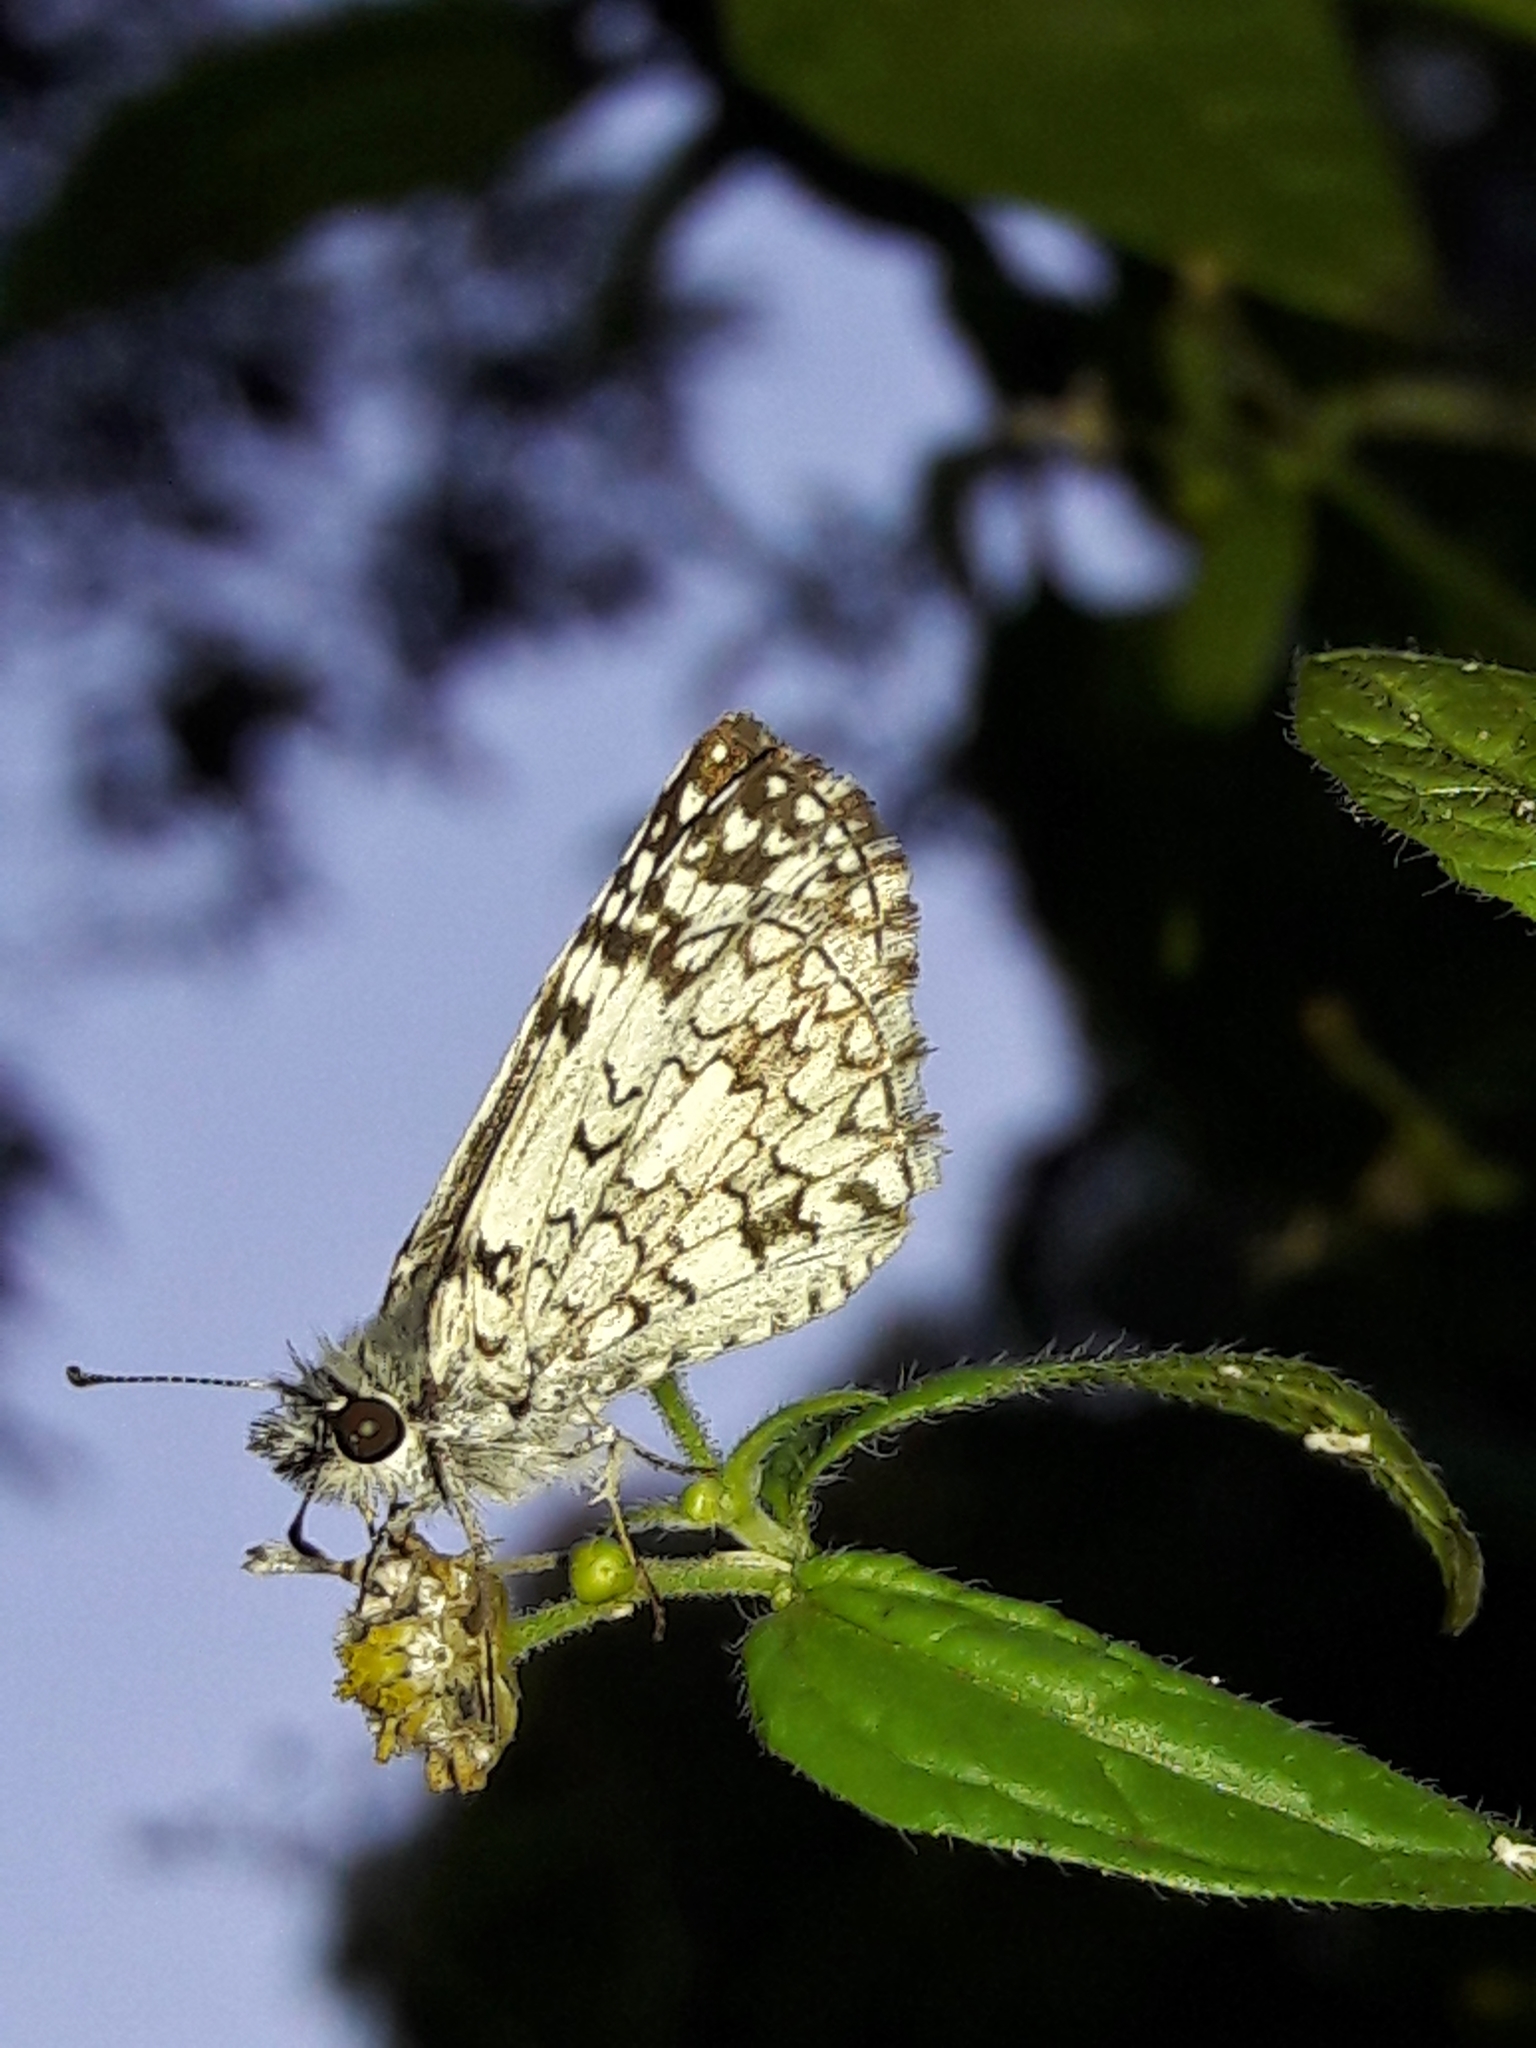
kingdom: Animalia
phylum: Arthropoda
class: Insecta
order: Lepidoptera
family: Hesperiidae
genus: Pyrgus
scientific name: Pyrgus oileus
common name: Tropical checkered-skipper
